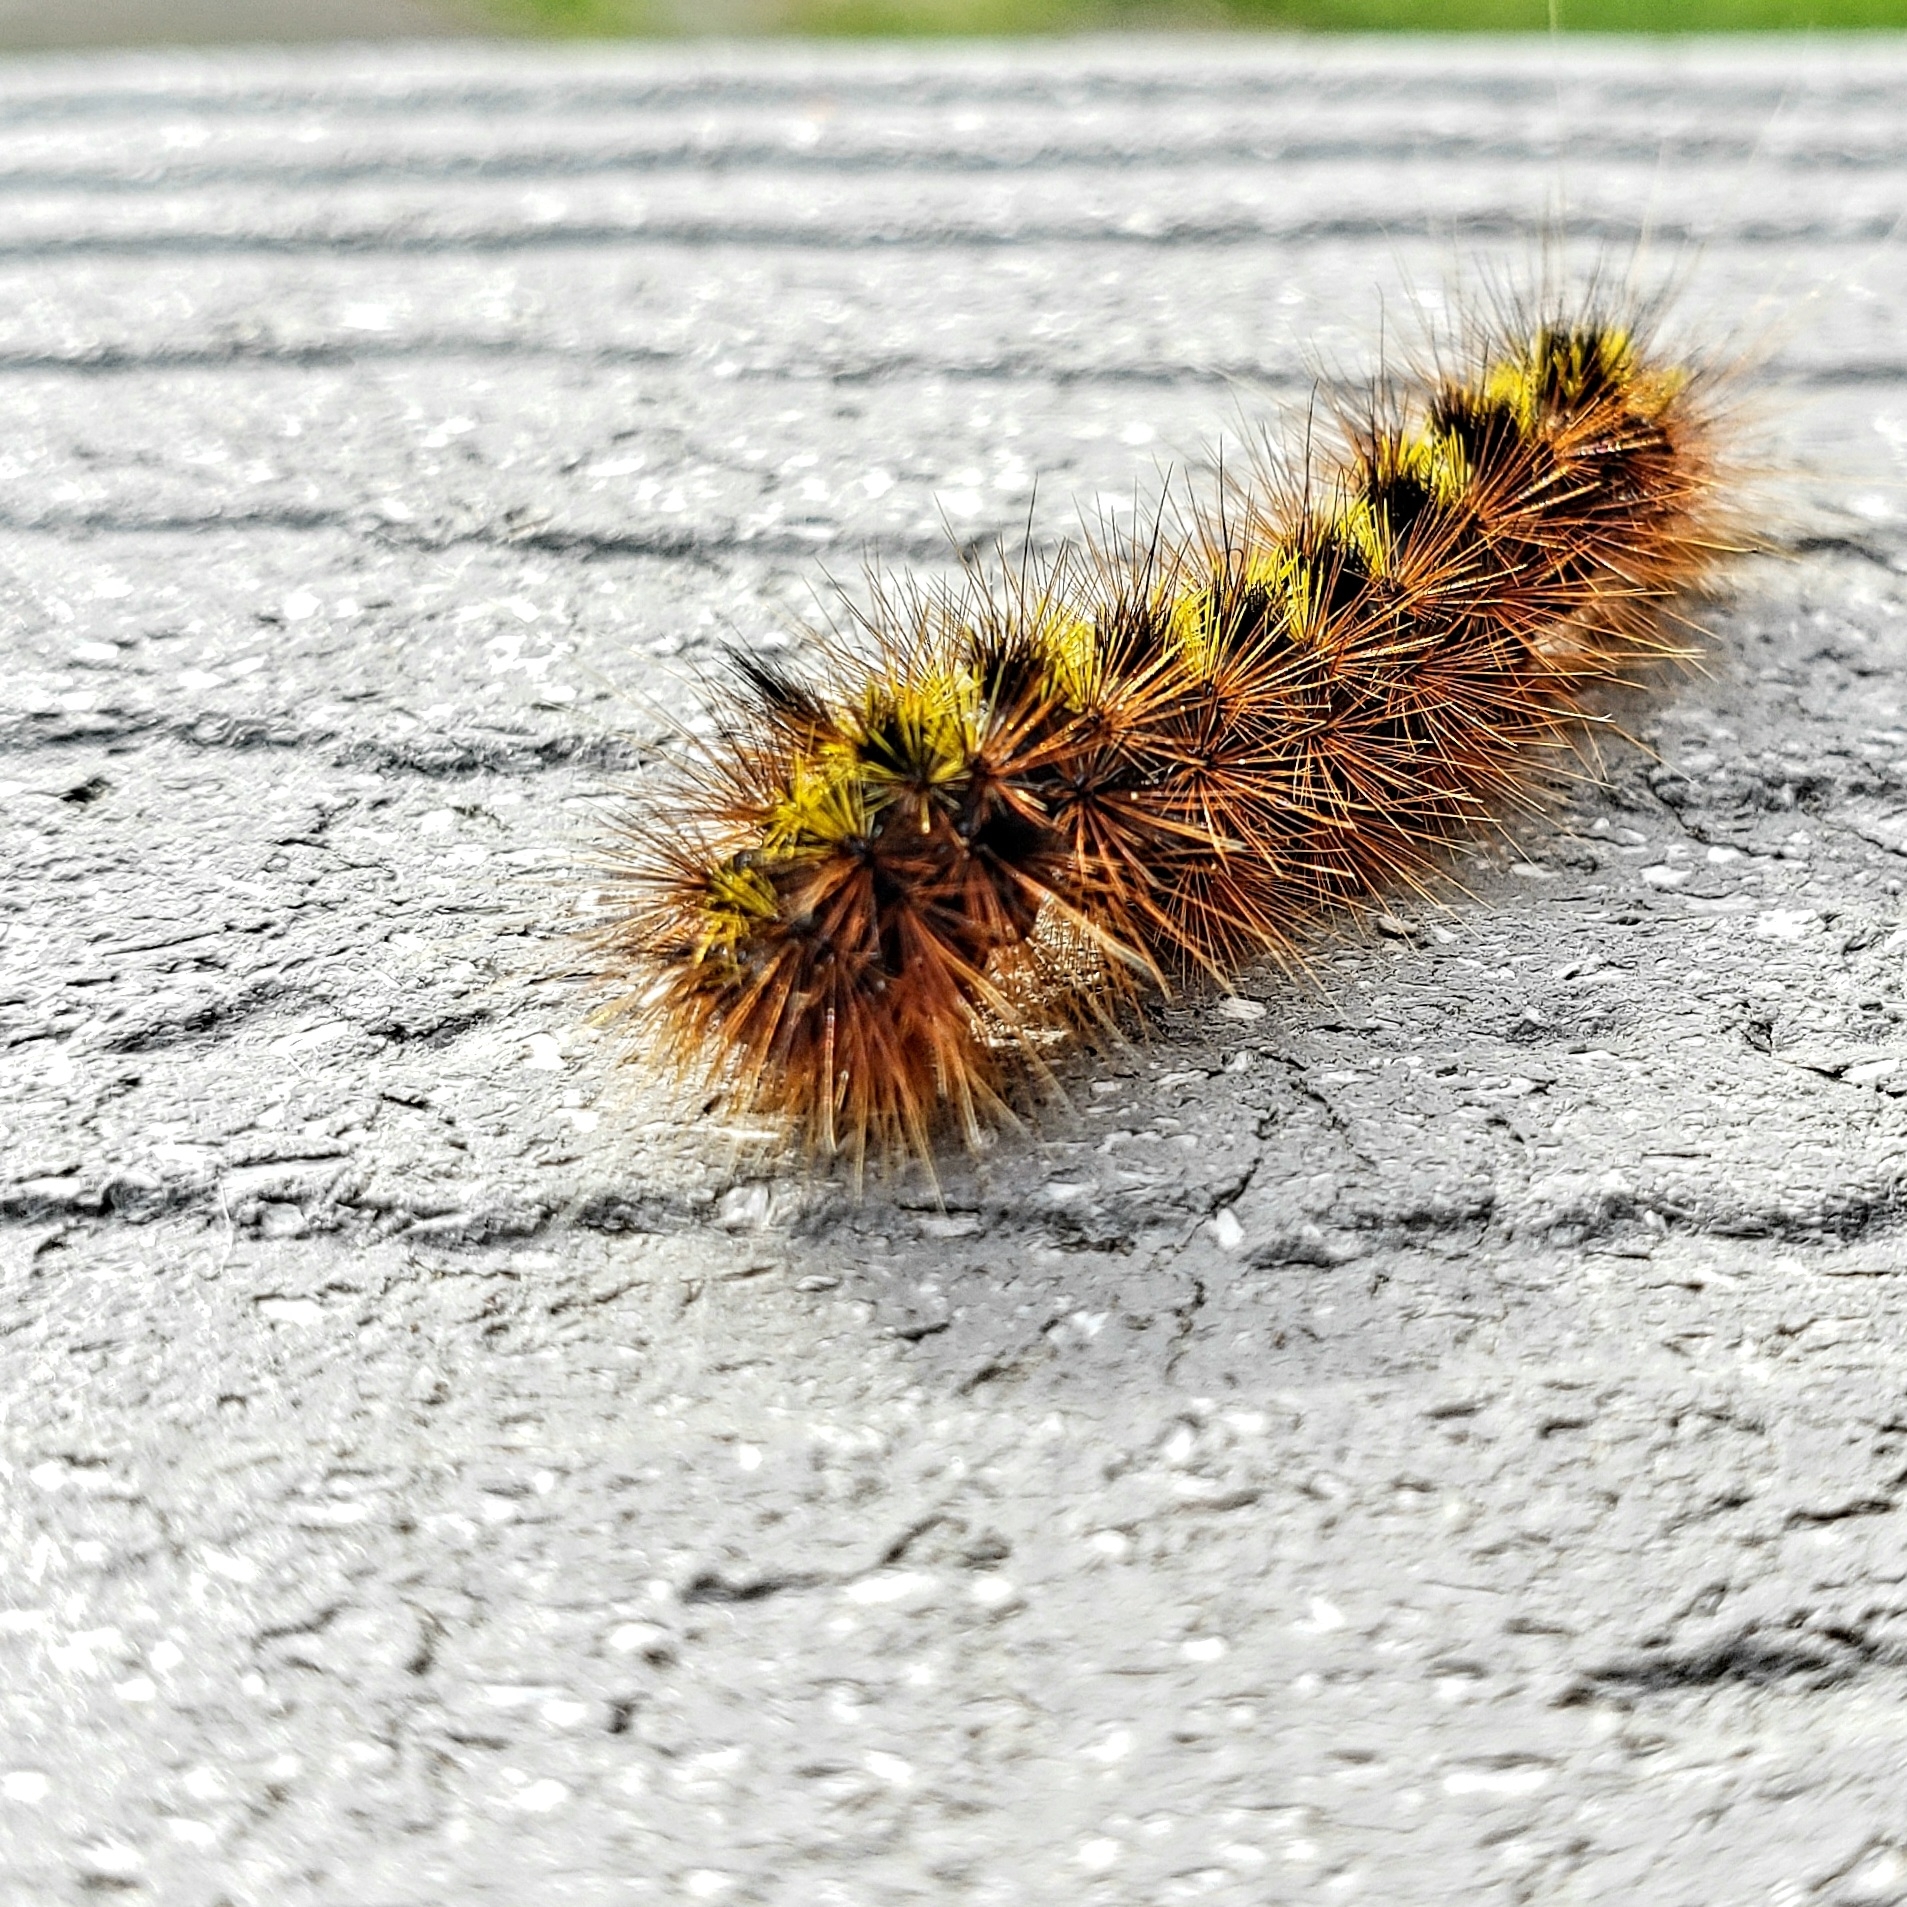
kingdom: Animalia
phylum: Arthropoda
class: Insecta
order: Lepidoptera
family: Erebidae
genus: Lophocampa
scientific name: Lophocampa argentata
